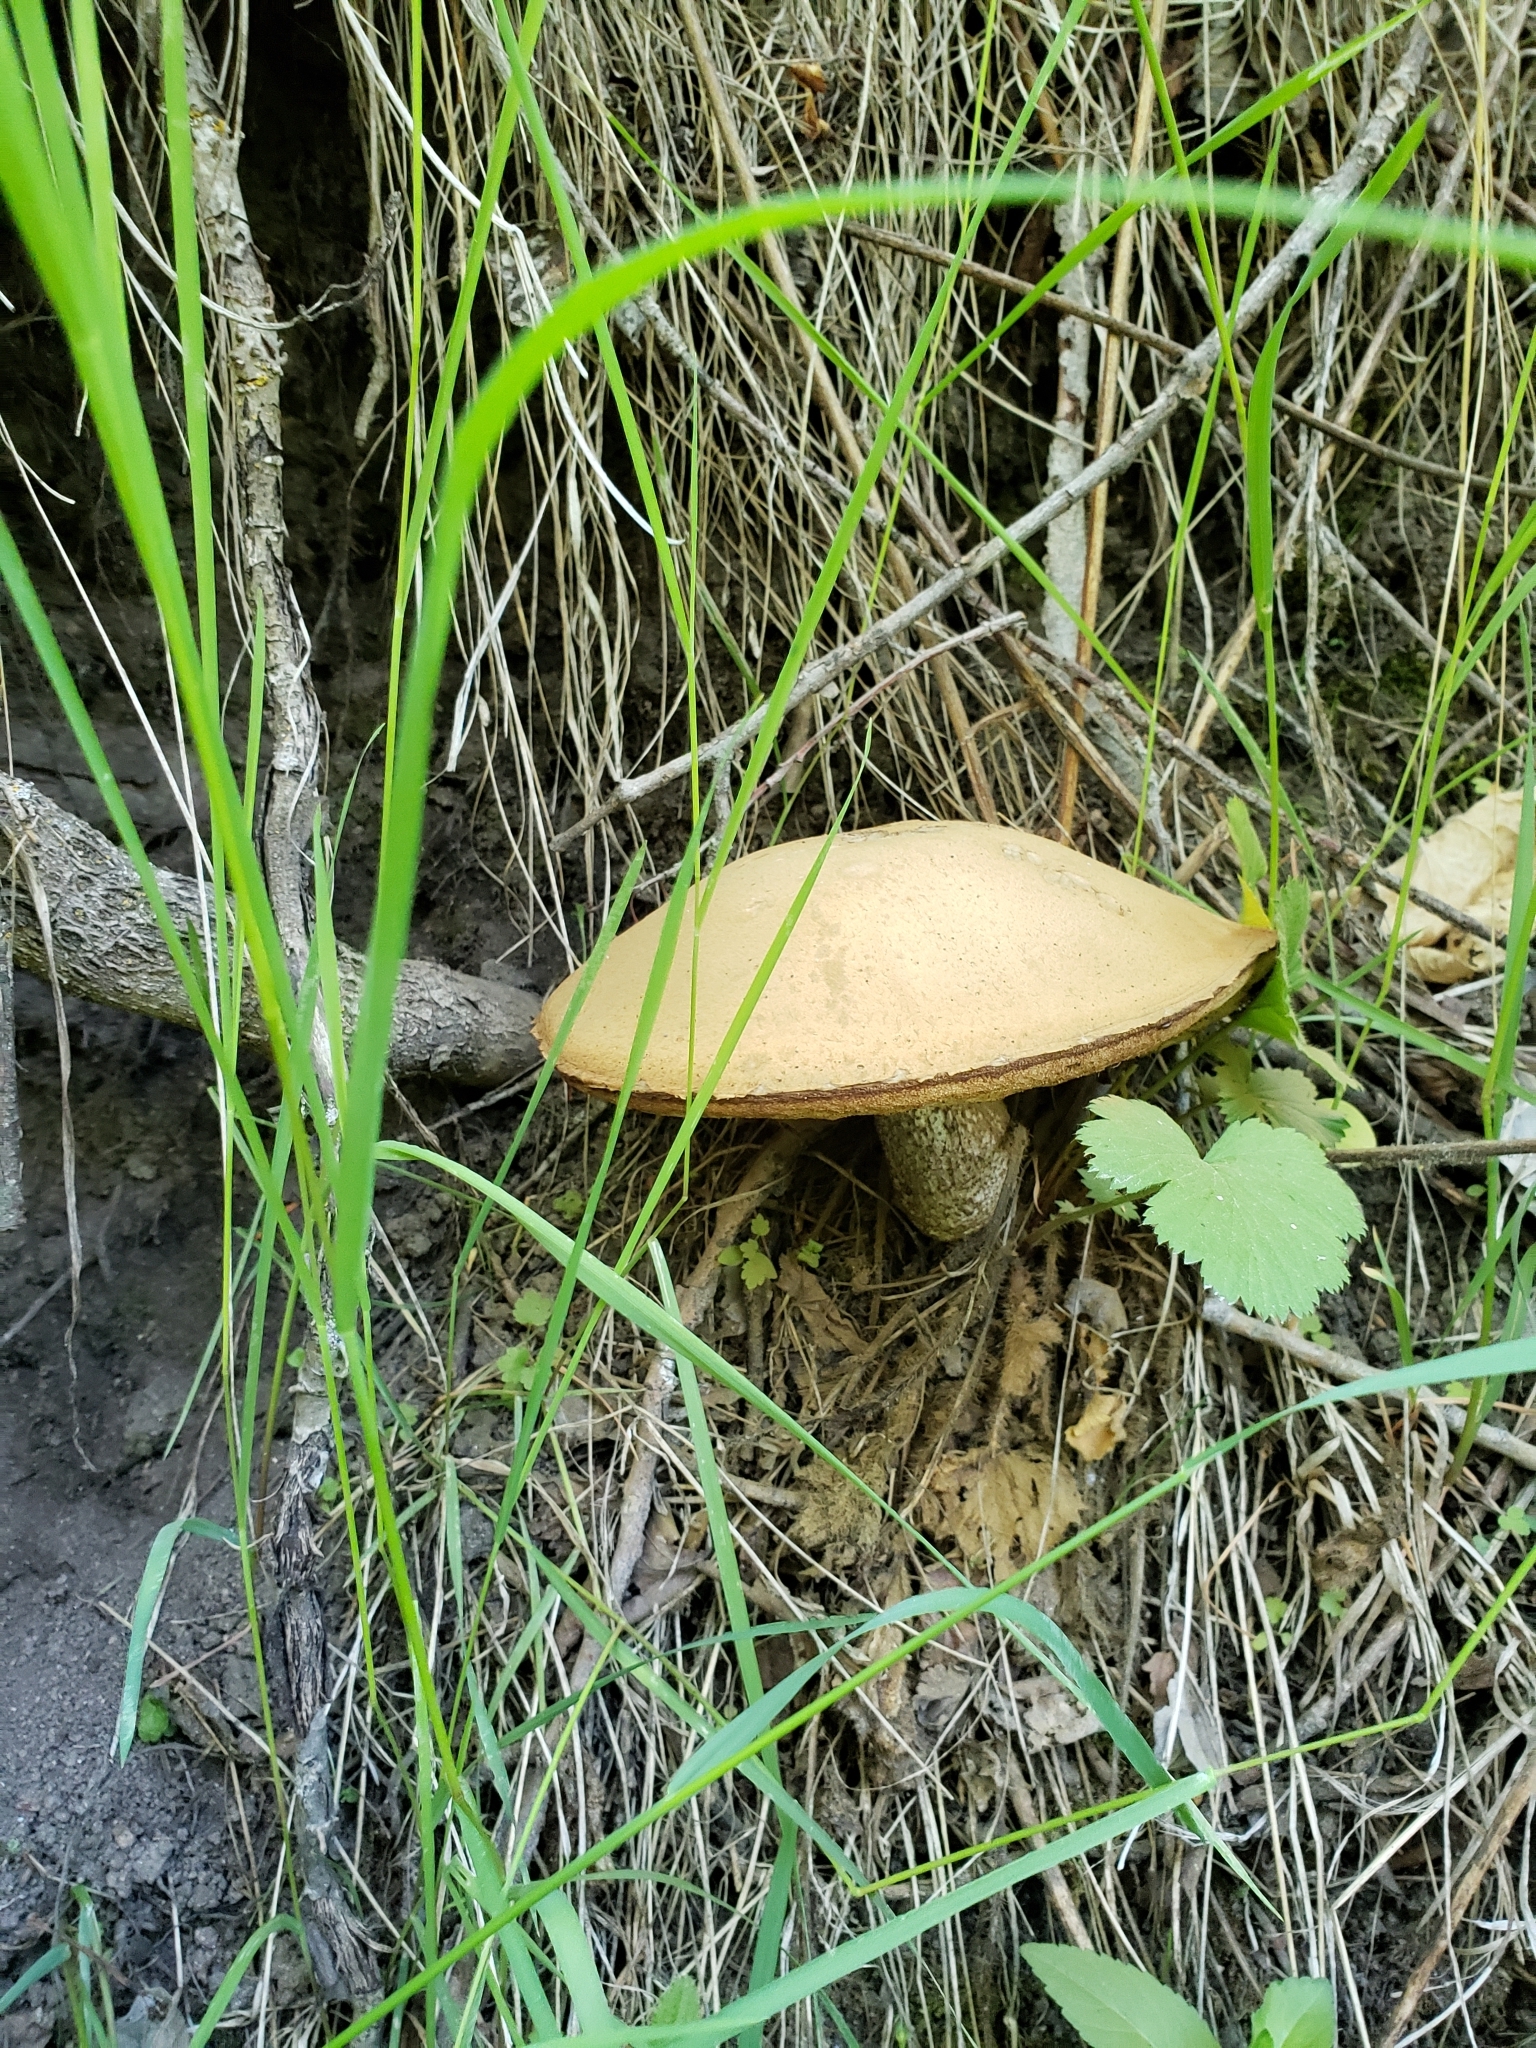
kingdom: Fungi
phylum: Basidiomycota
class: Agaricomycetes
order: Boletales
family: Boletaceae
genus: Leccinum
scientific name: Leccinum insigne
